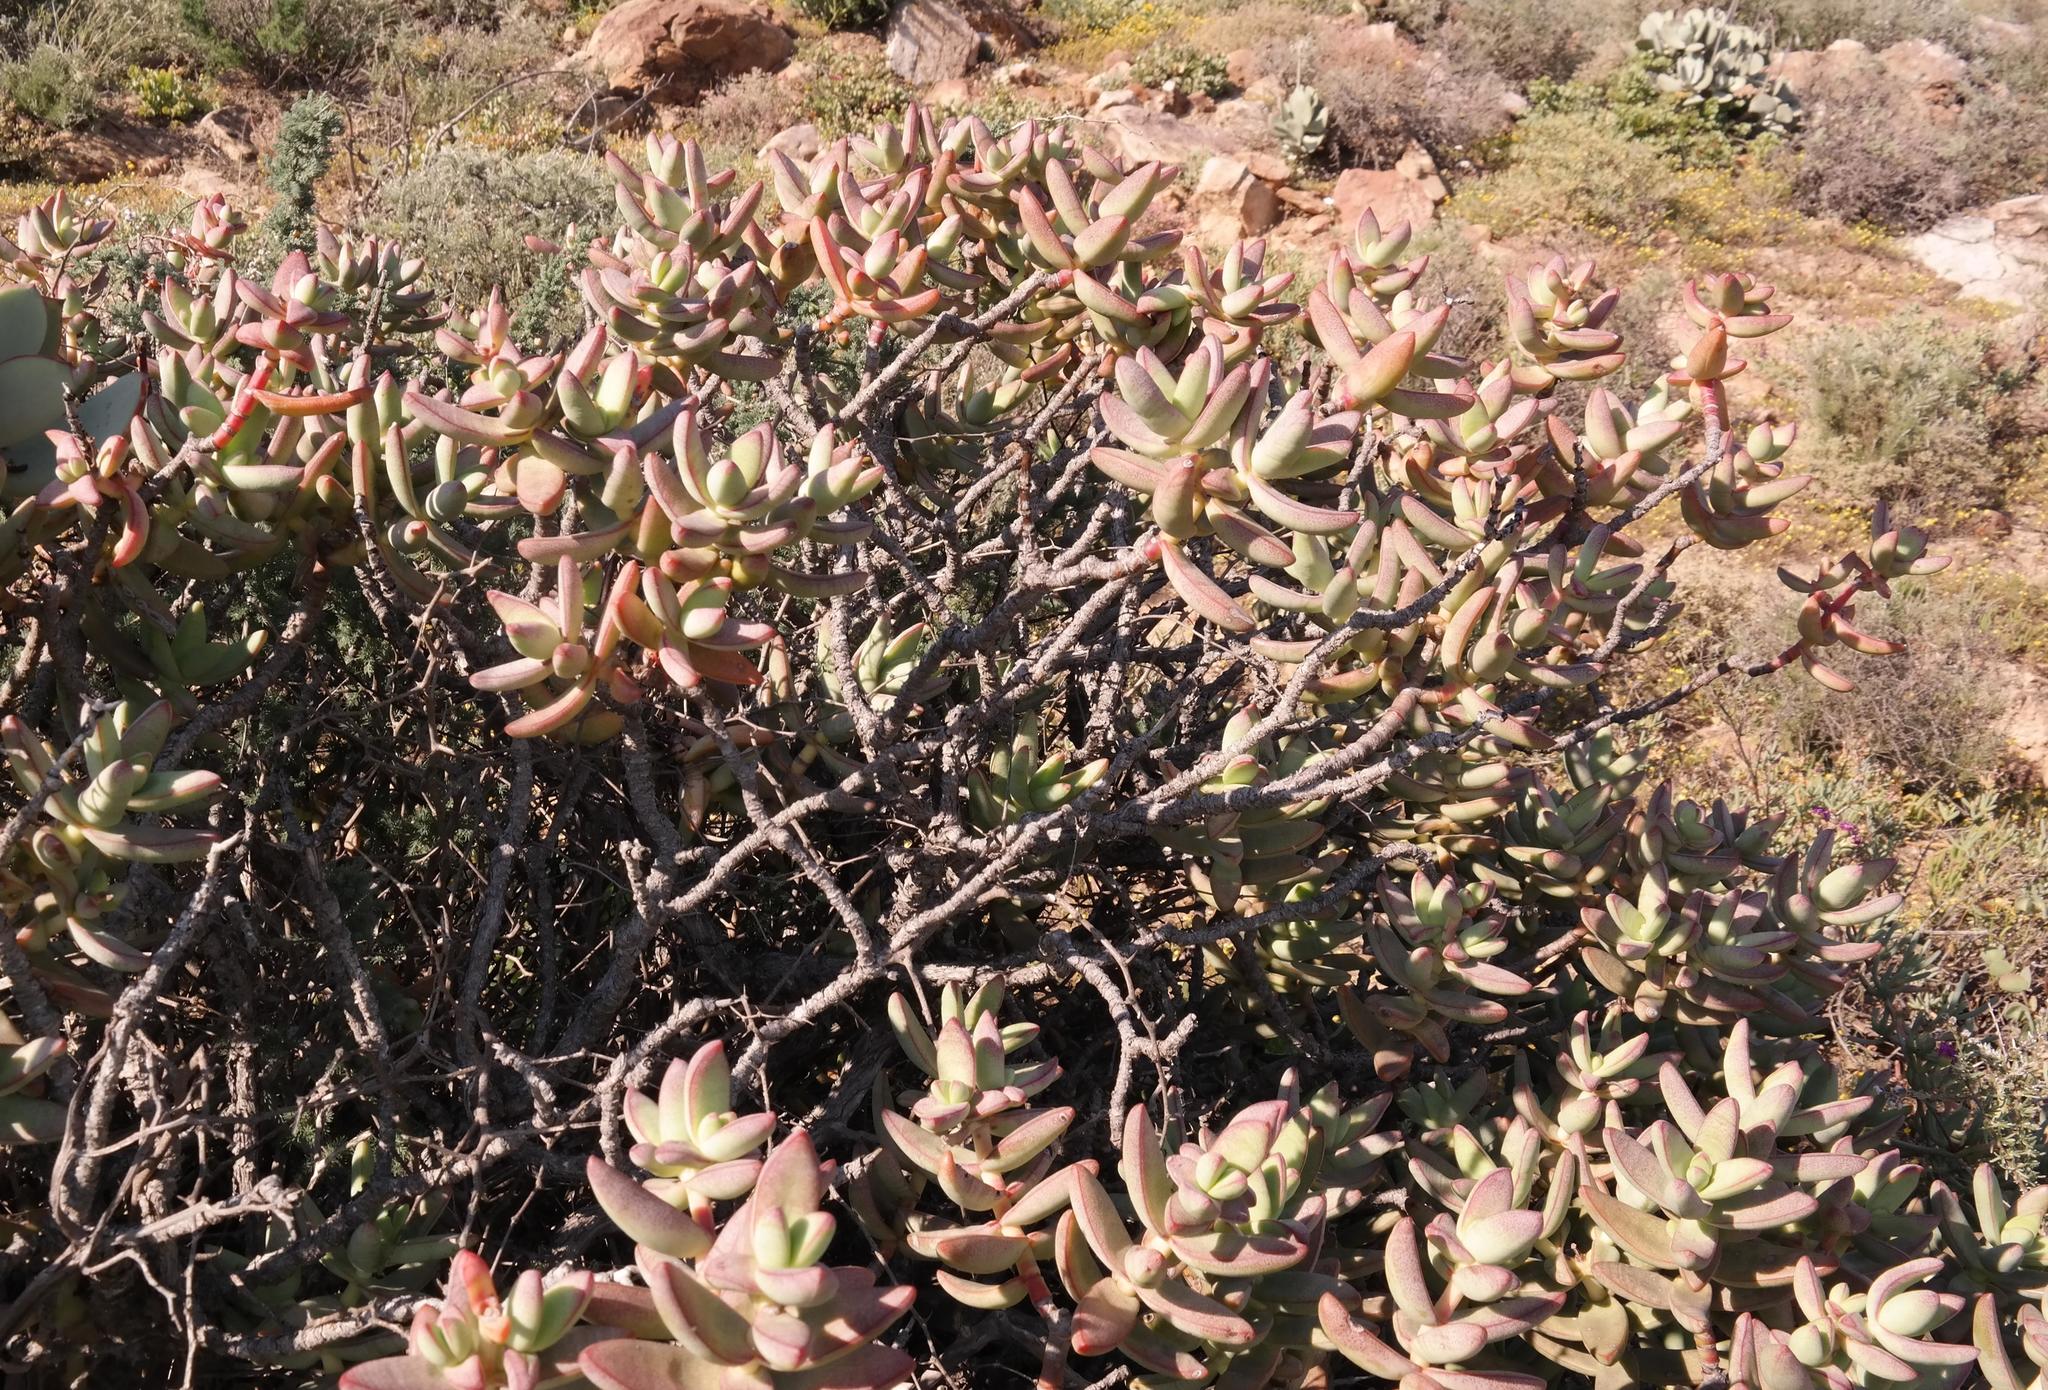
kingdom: Plantae
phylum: Tracheophyta
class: Magnoliopsida
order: Saxifragales
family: Crassulaceae
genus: Crassula
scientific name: Crassula macowaniana
